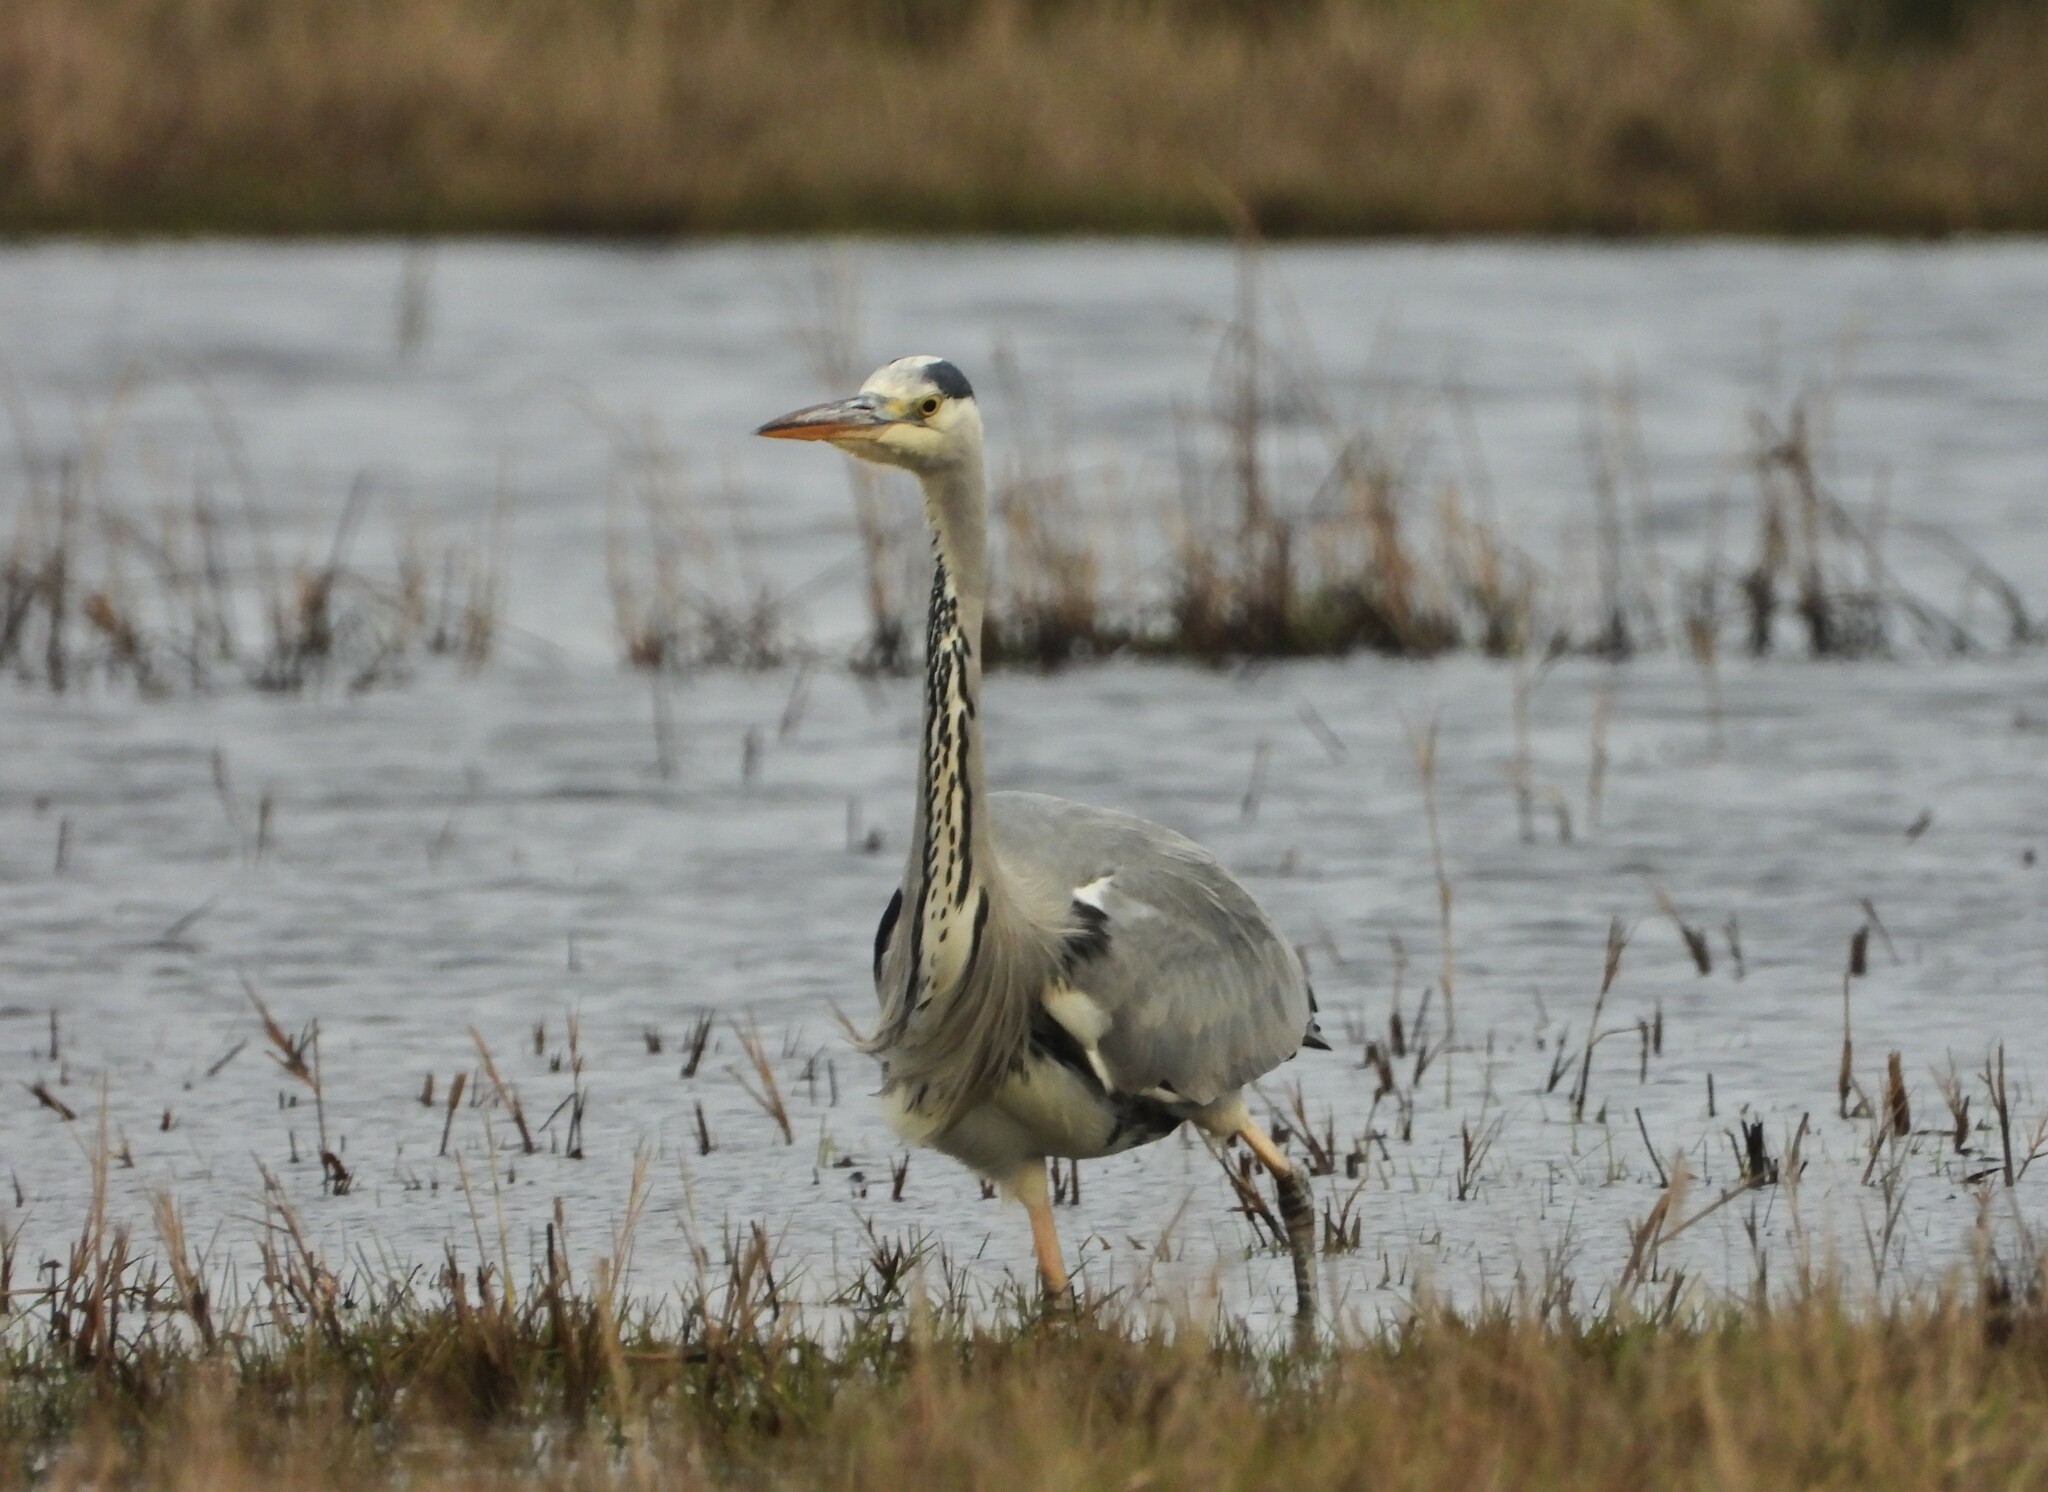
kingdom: Animalia
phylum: Chordata
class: Aves
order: Pelecaniformes
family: Ardeidae
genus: Ardea
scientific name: Ardea cinerea
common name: Grey heron
